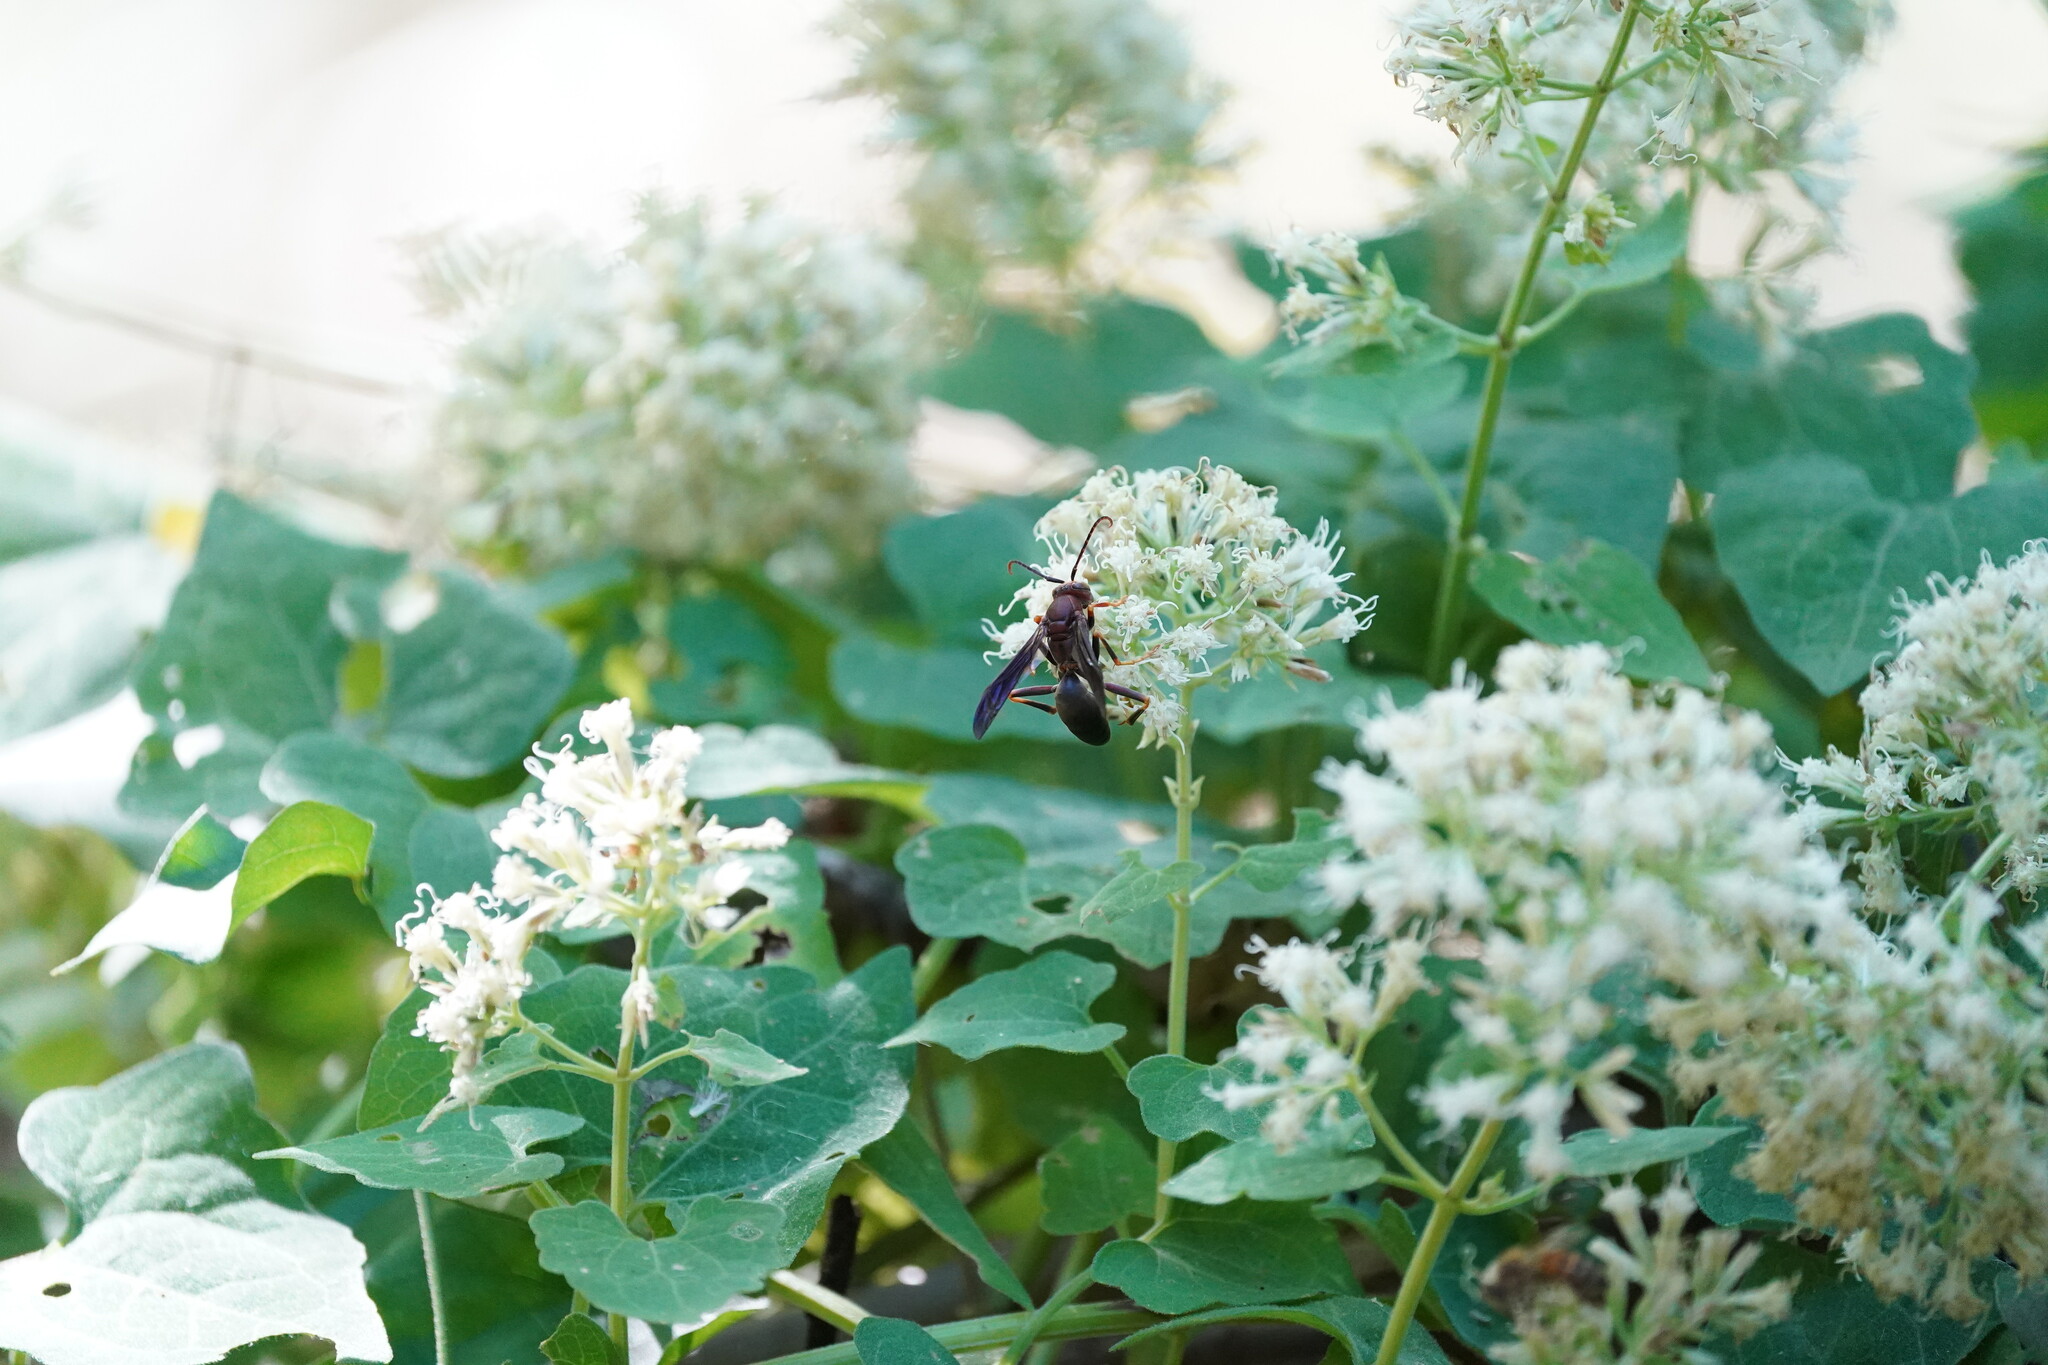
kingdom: Animalia
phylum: Arthropoda
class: Insecta
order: Hymenoptera
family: Eumenidae
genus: Polistes
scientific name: Polistes metricus
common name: Metric paper wasp
